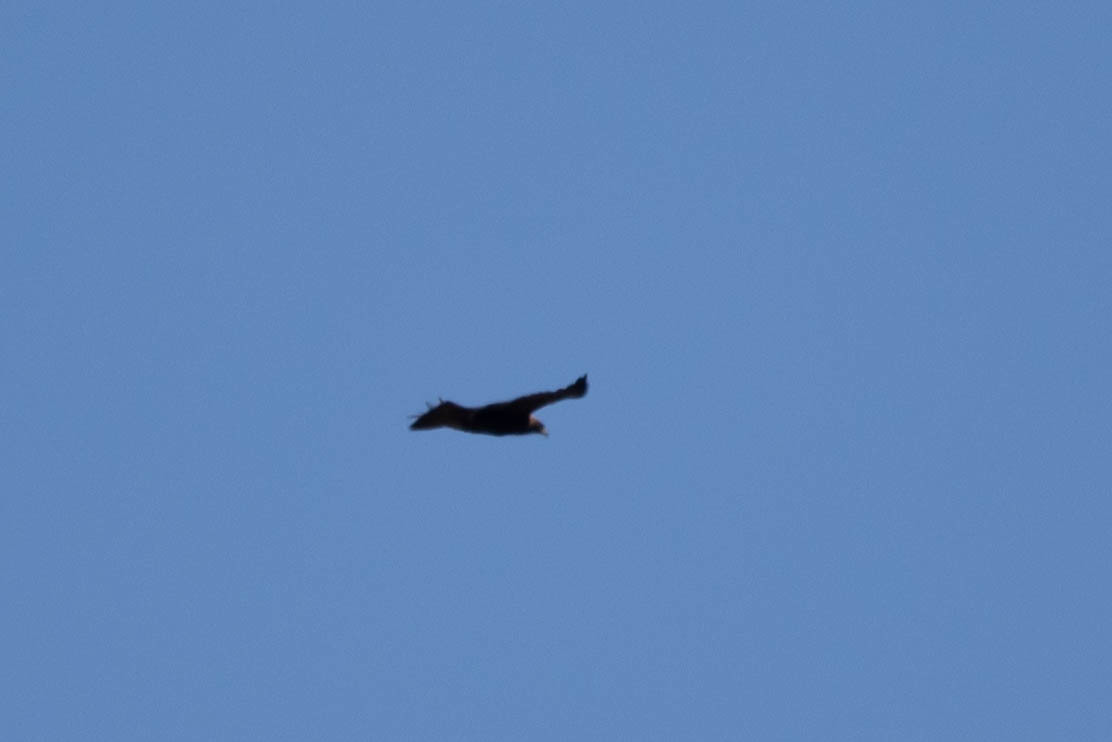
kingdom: Animalia
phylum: Chordata
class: Aves
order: Accipitriformes
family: Accipitridae
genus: Aquila
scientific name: Aquila chrysaetos
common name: Golden eagle
